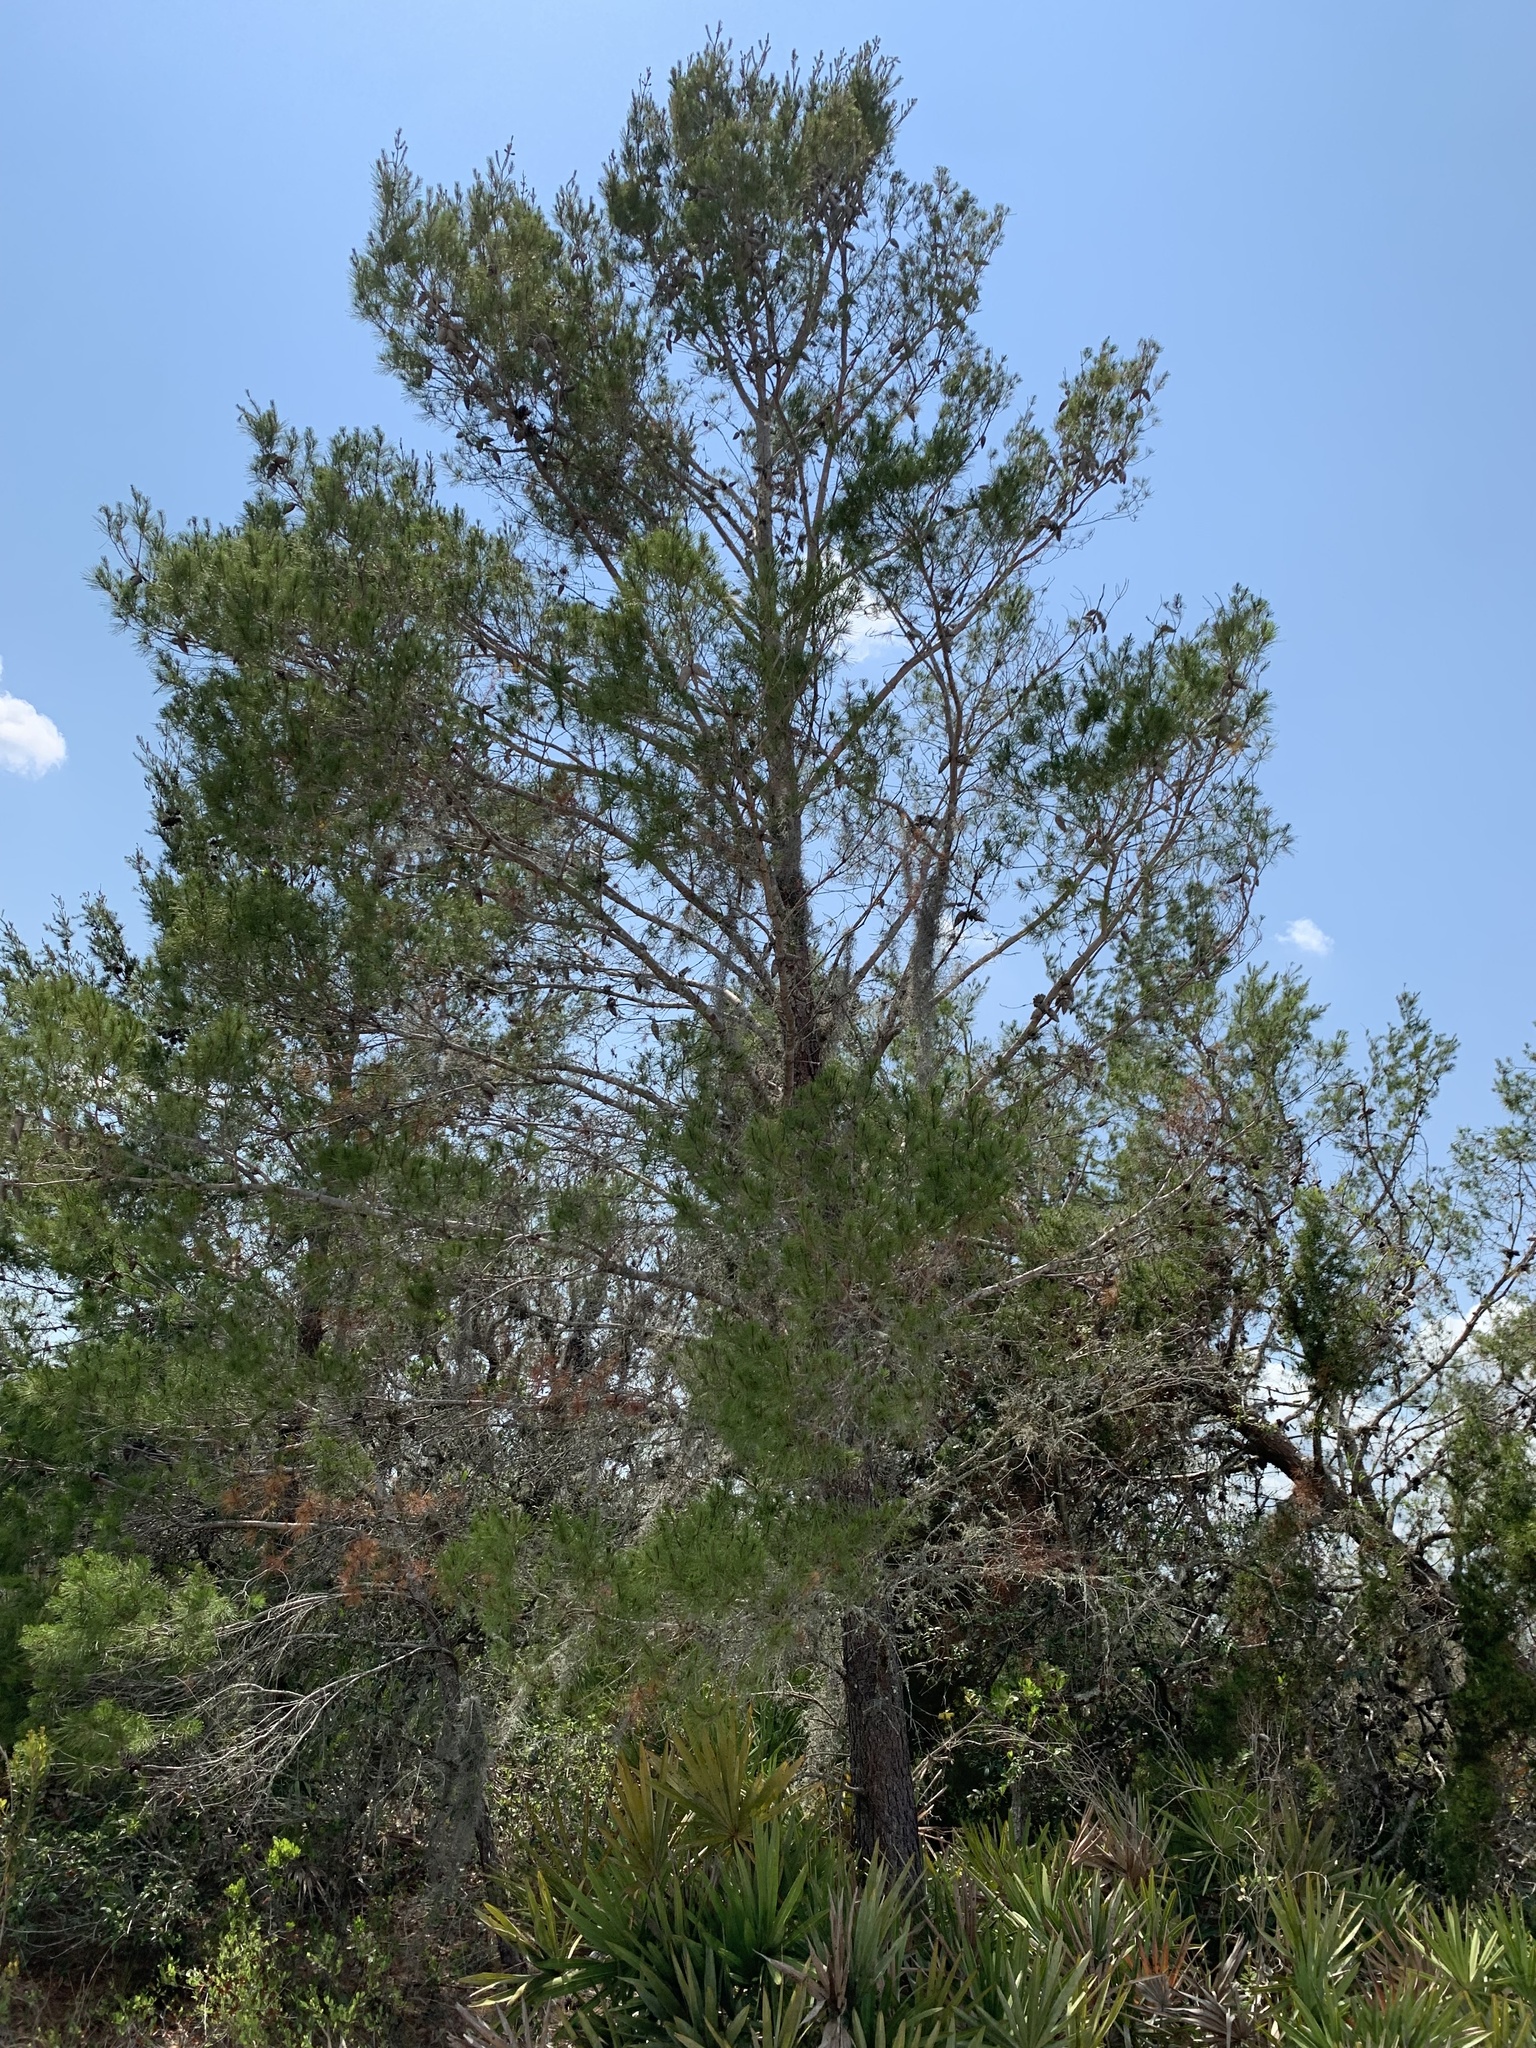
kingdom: Plantae
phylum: Tracheophyta
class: Pinopsida
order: Pinales
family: Pinaceae
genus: Pinus
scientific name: Pinus clausa
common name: Sand pine
